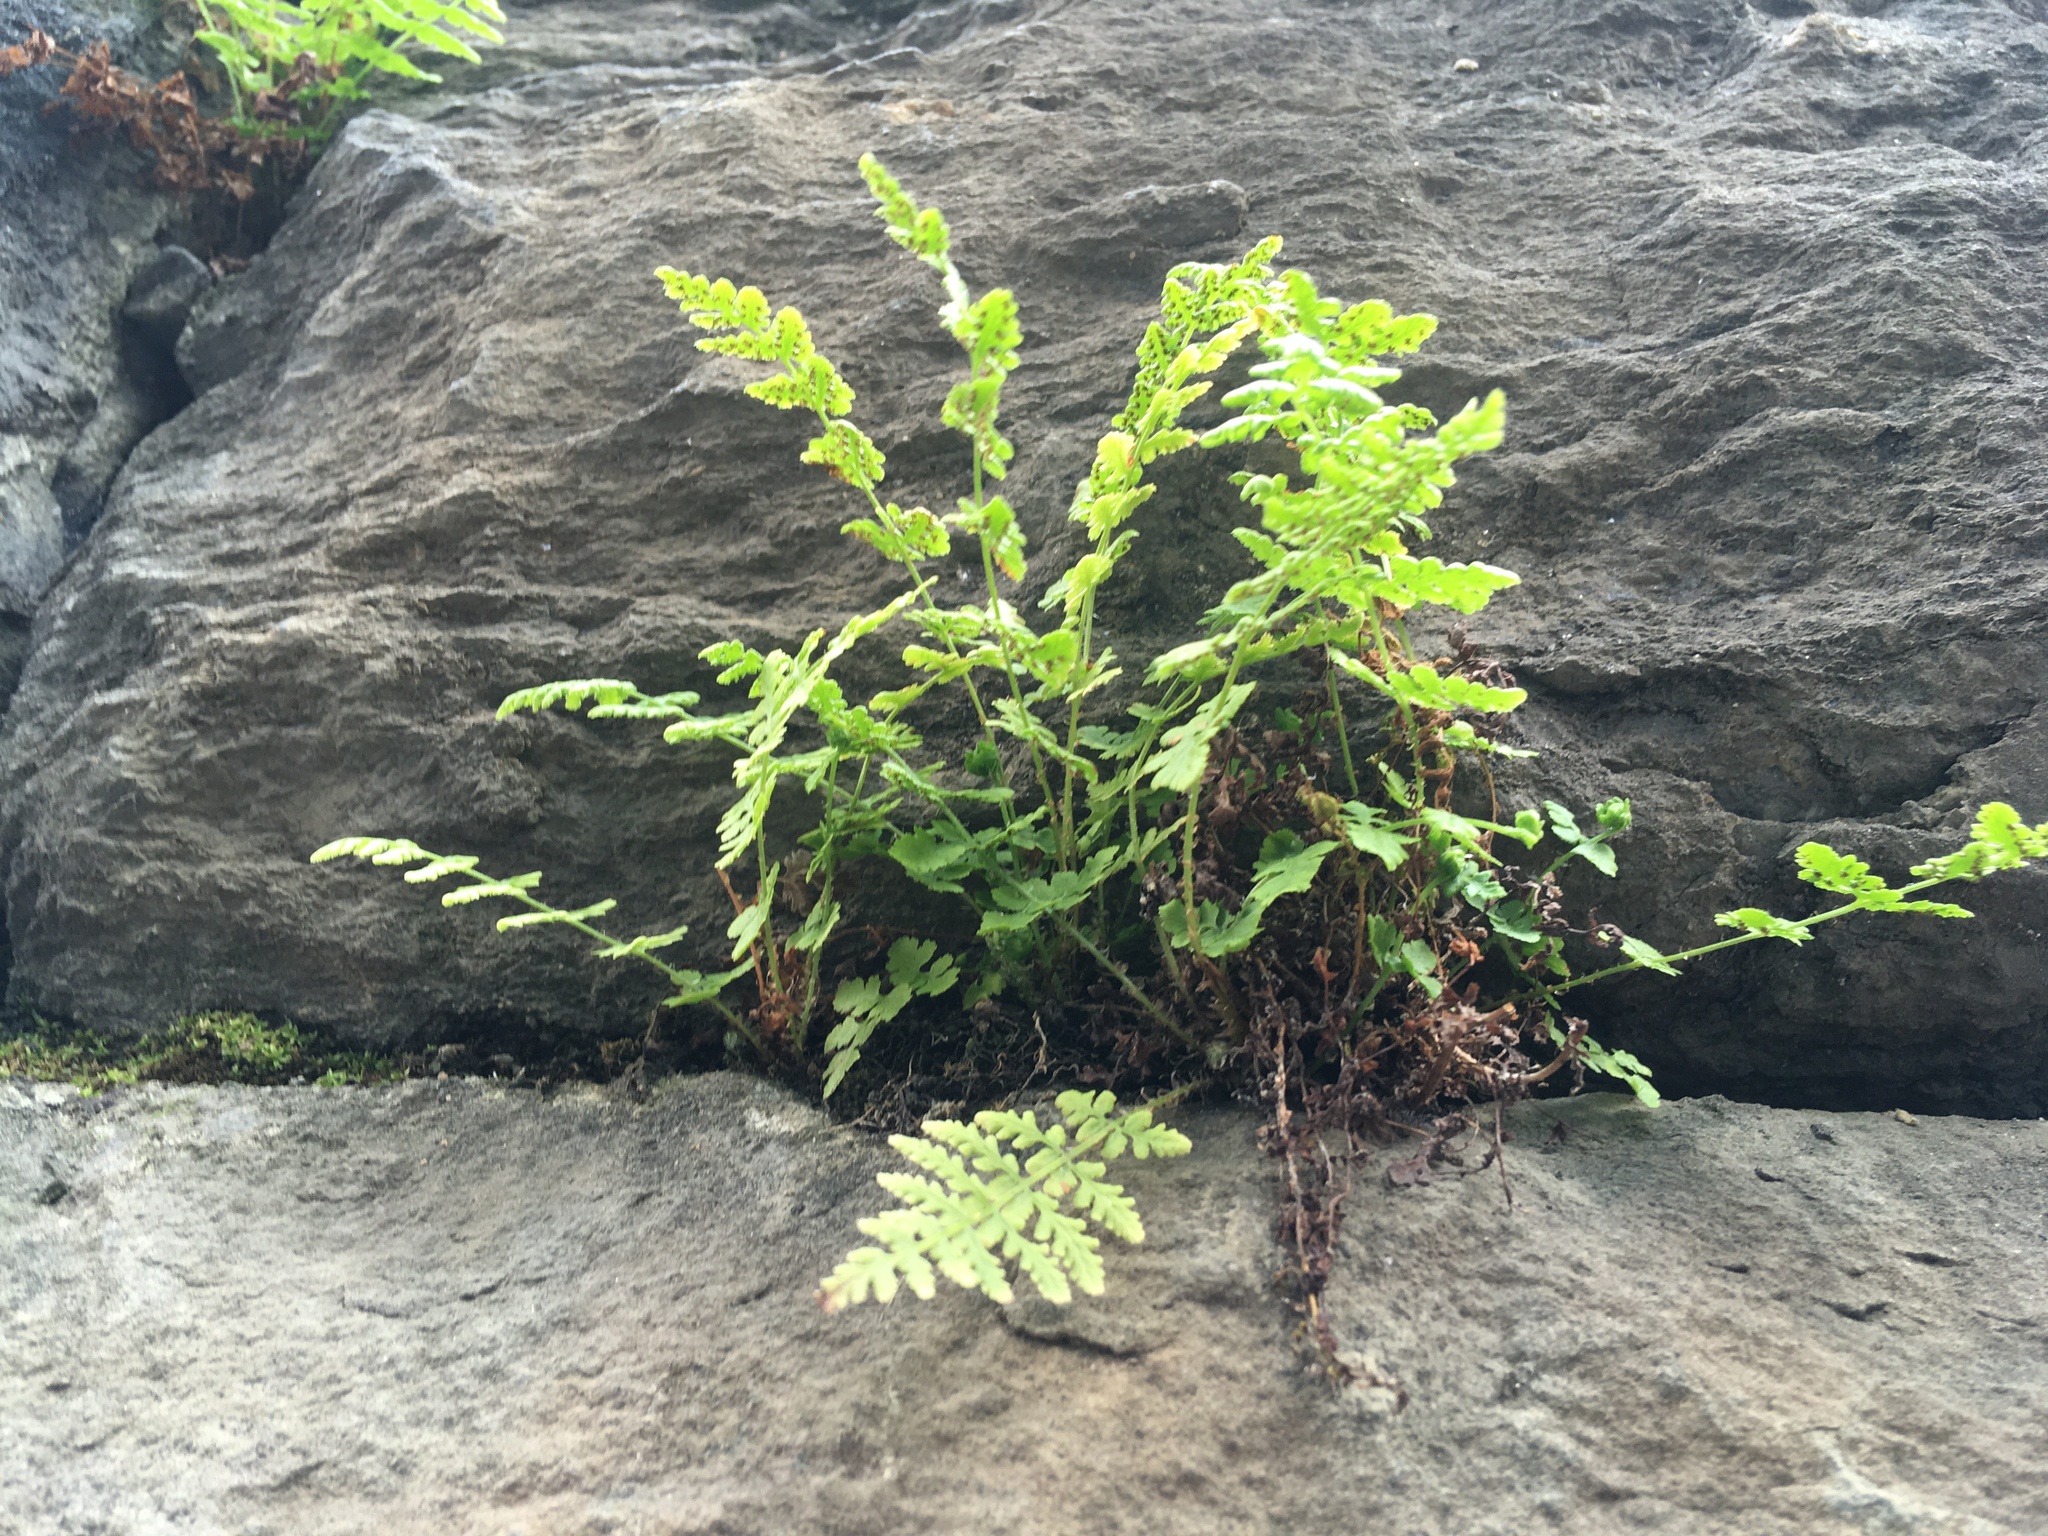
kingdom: Plantae
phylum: Tracheophyta
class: Polypodiopsida
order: Polypodiales
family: Woodsiaceae
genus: Physematium
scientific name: Physematium obtusum
